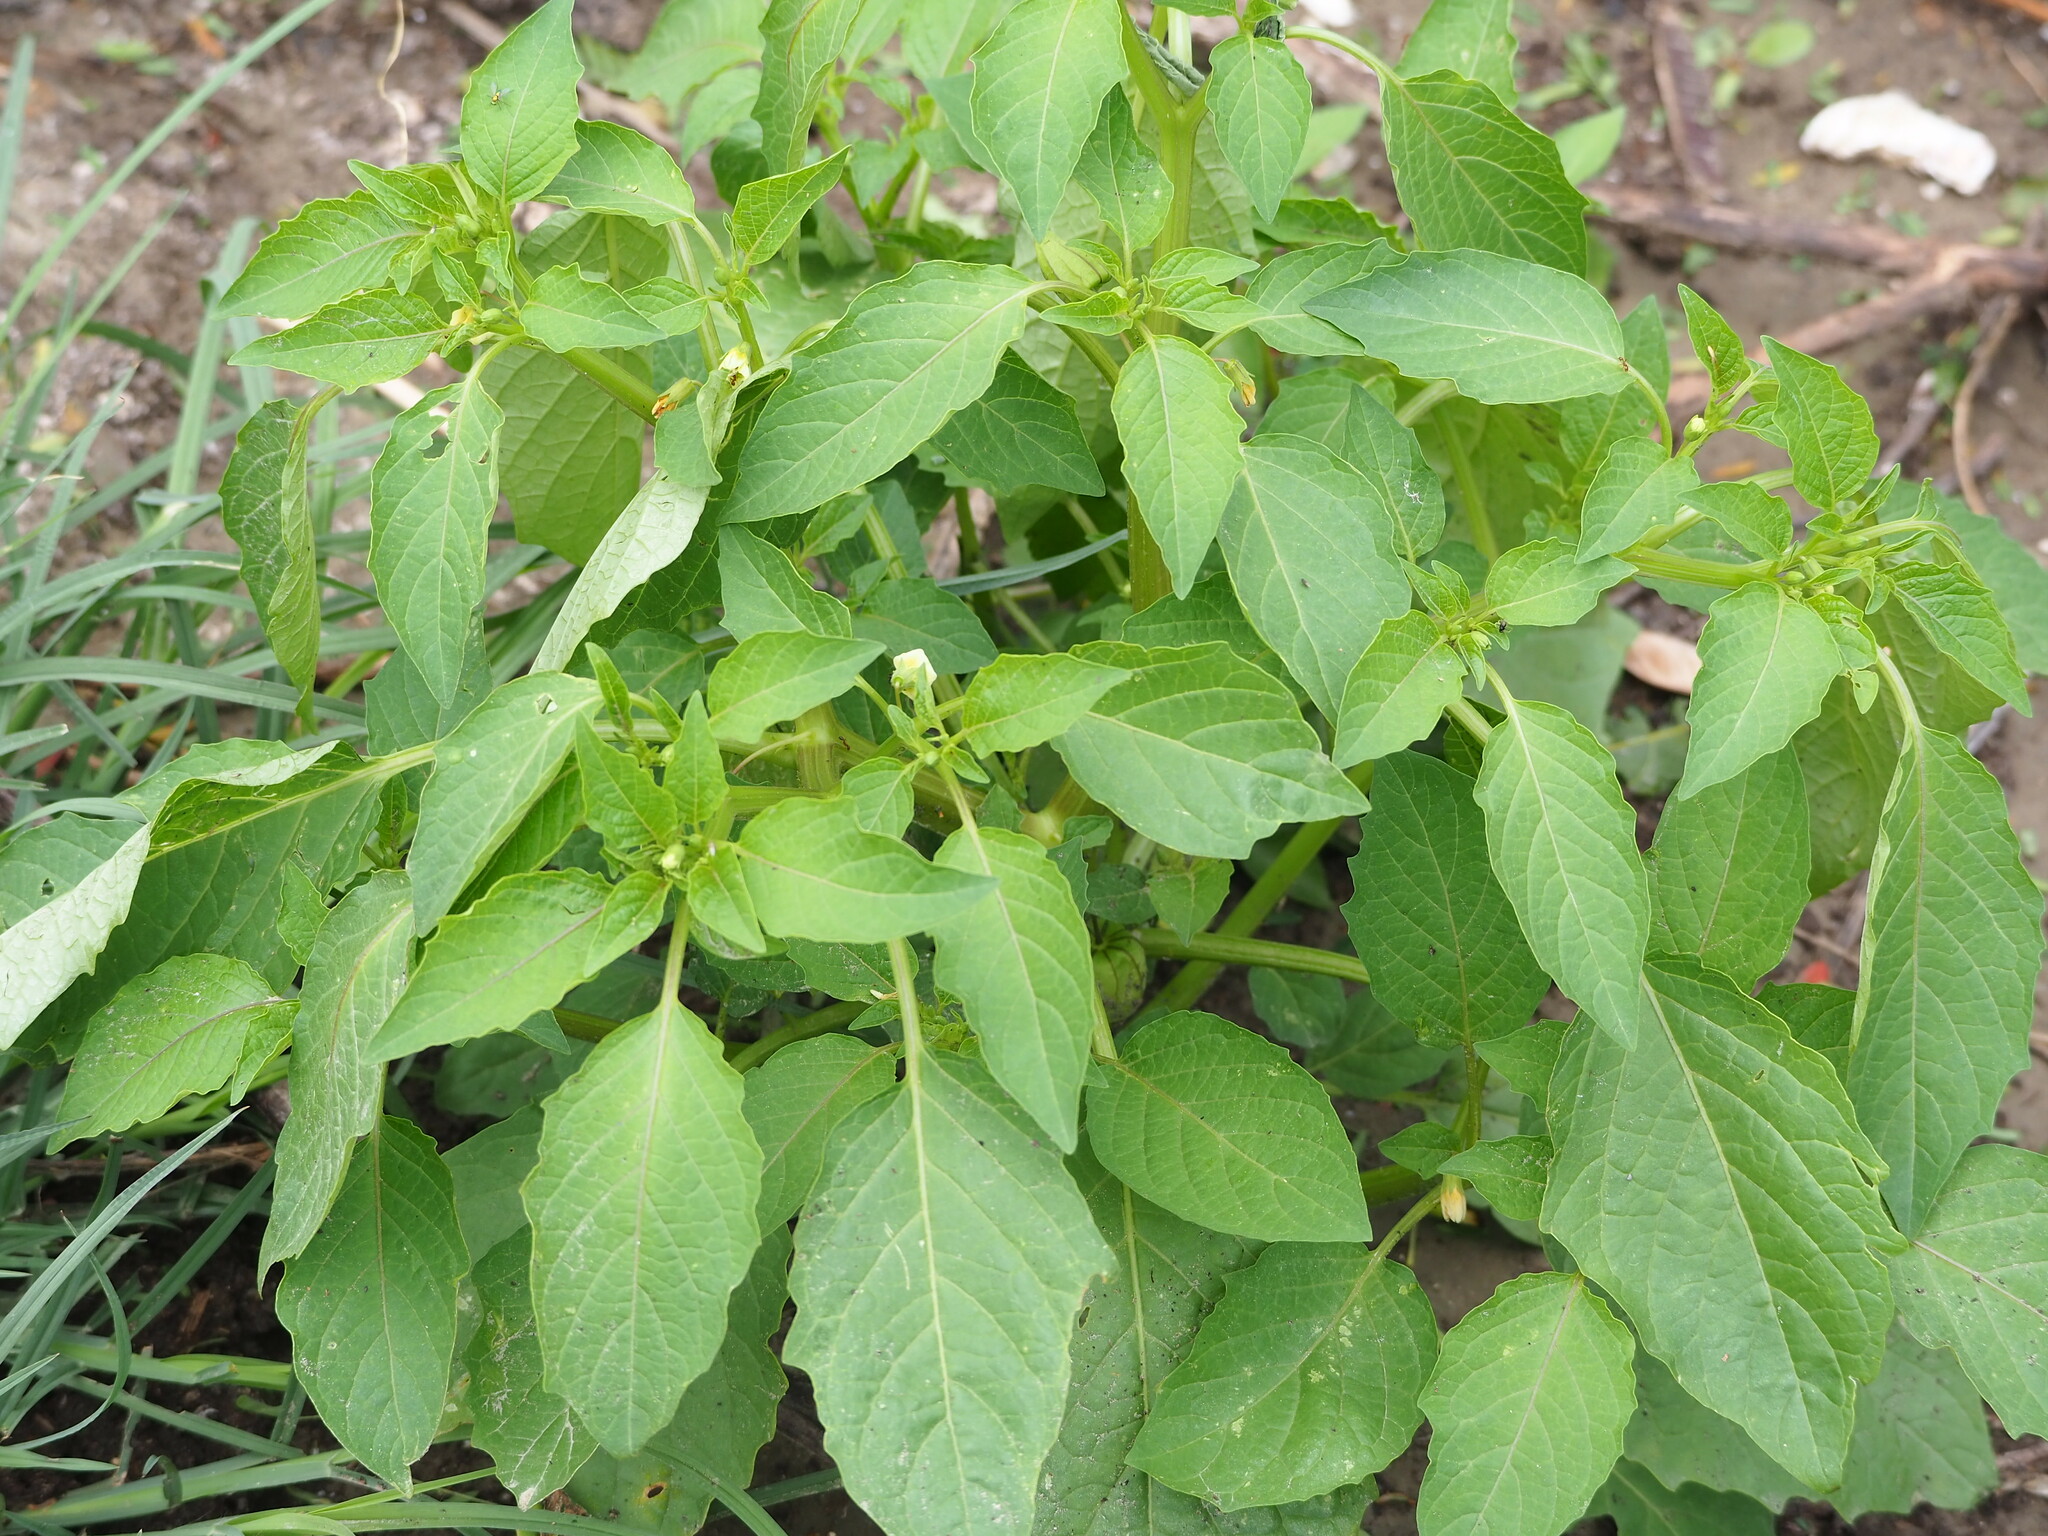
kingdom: Plantae
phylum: Tracheophyta
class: Magnoliopsida
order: Solanales
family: Solanaceae
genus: Physalis
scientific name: Physalis angulata
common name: Angular winter-cherry
